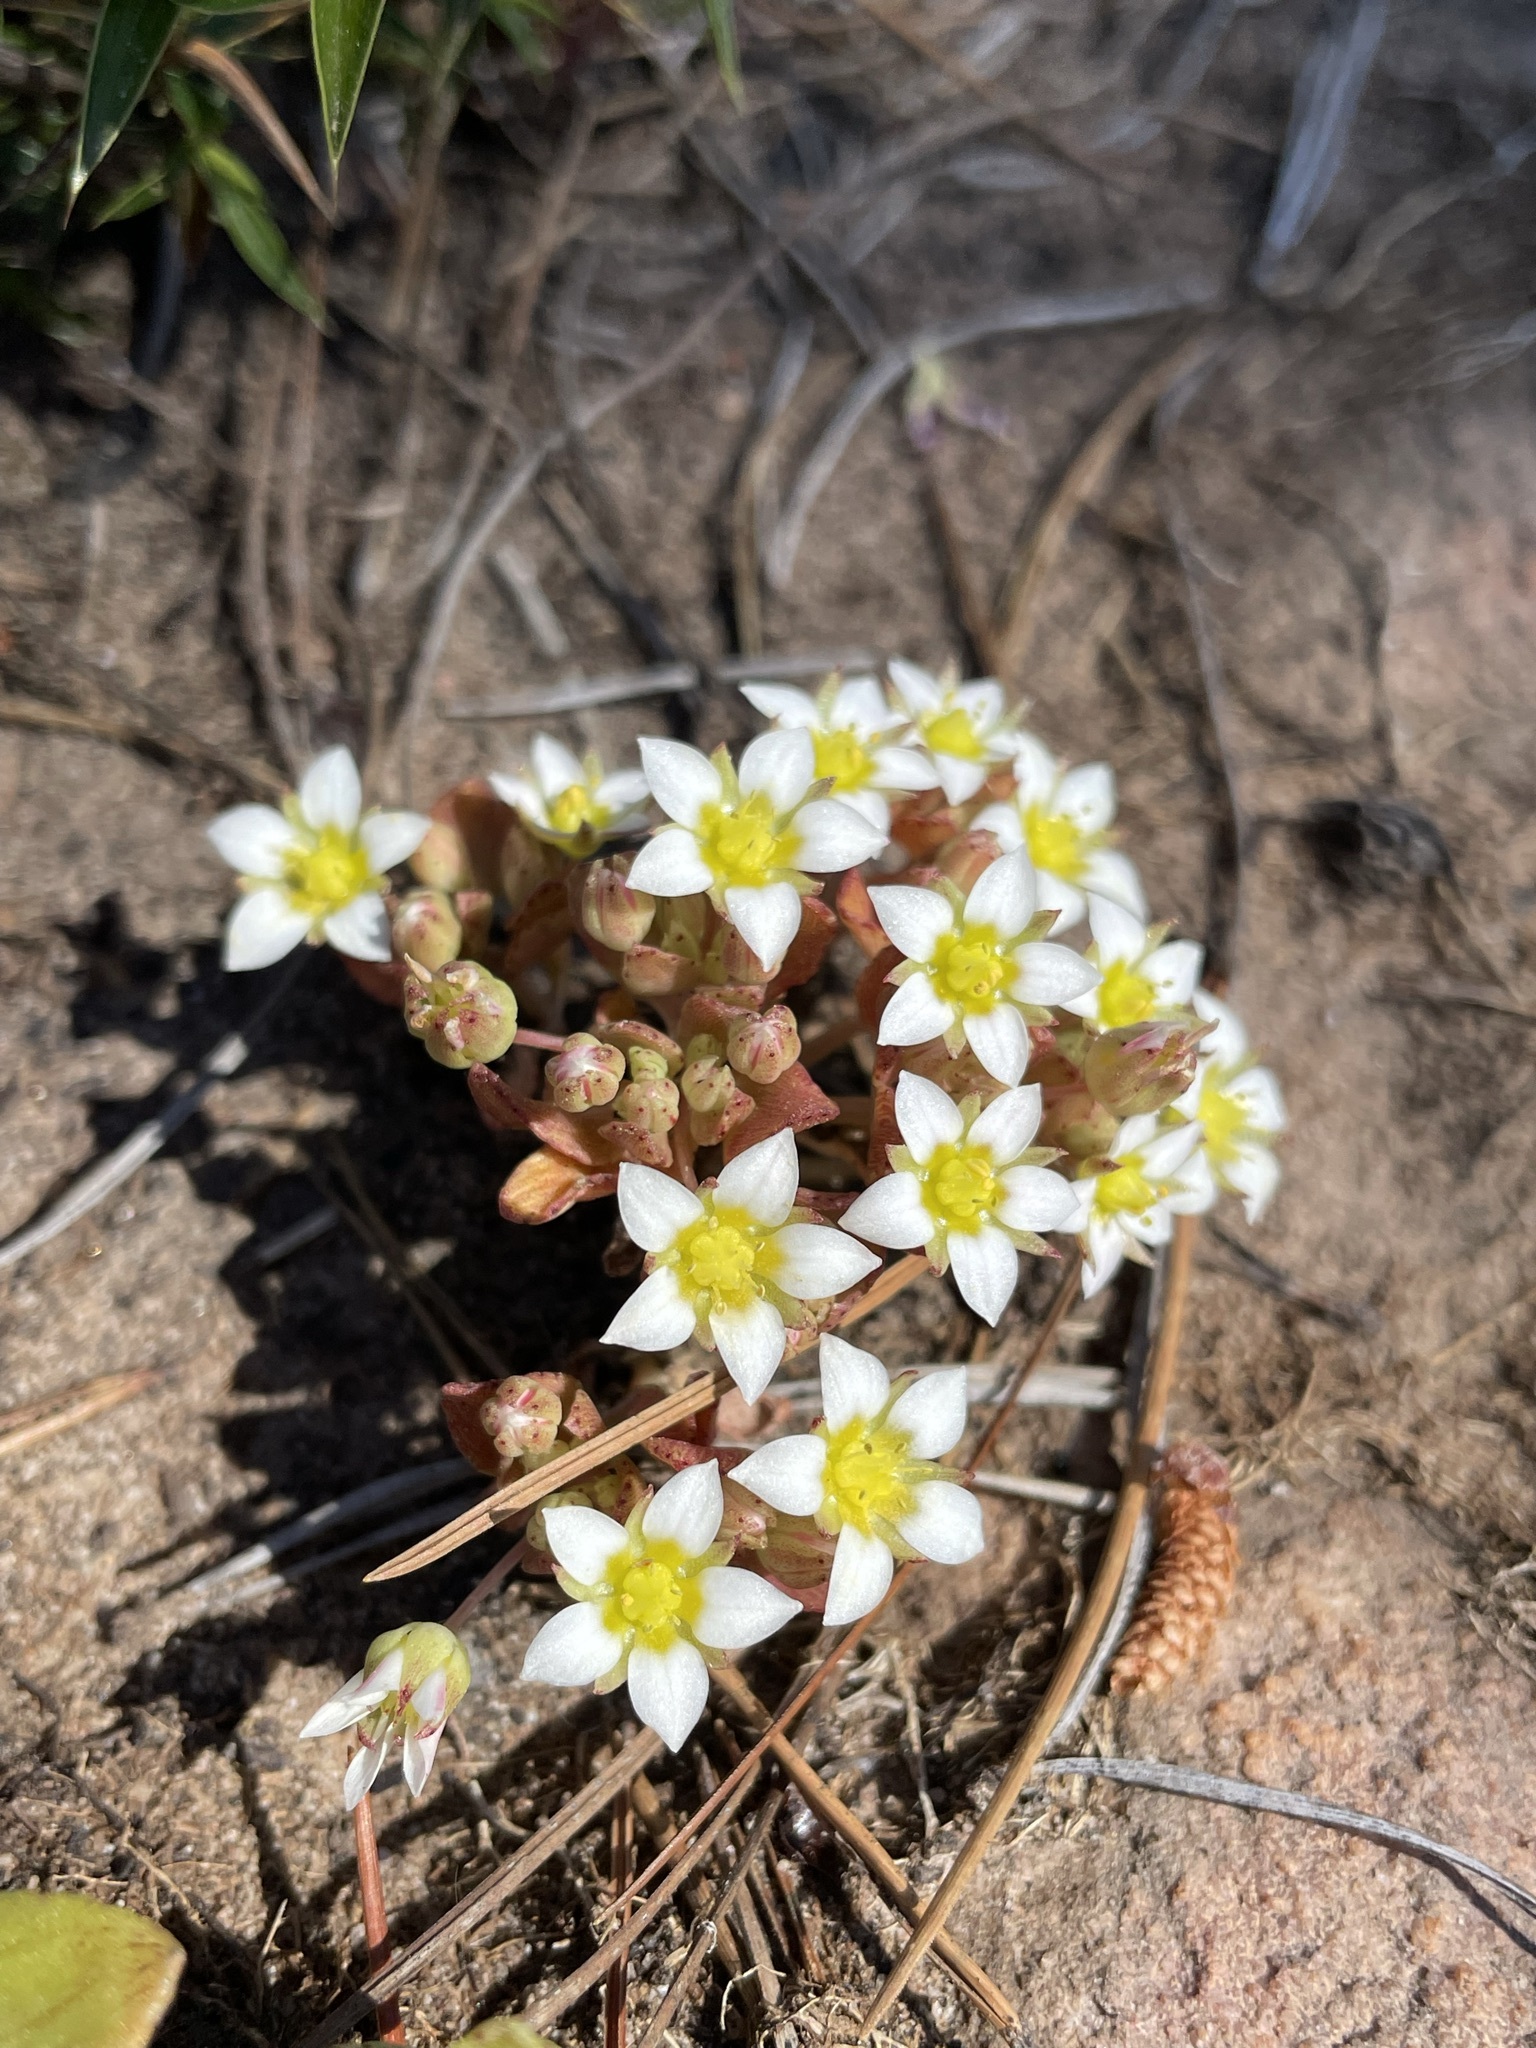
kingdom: Plantae
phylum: Tracheophyta
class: Magnoliopsida
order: Saxifragales
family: Crassulaceae
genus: Crassula
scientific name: Crassula pellucida
